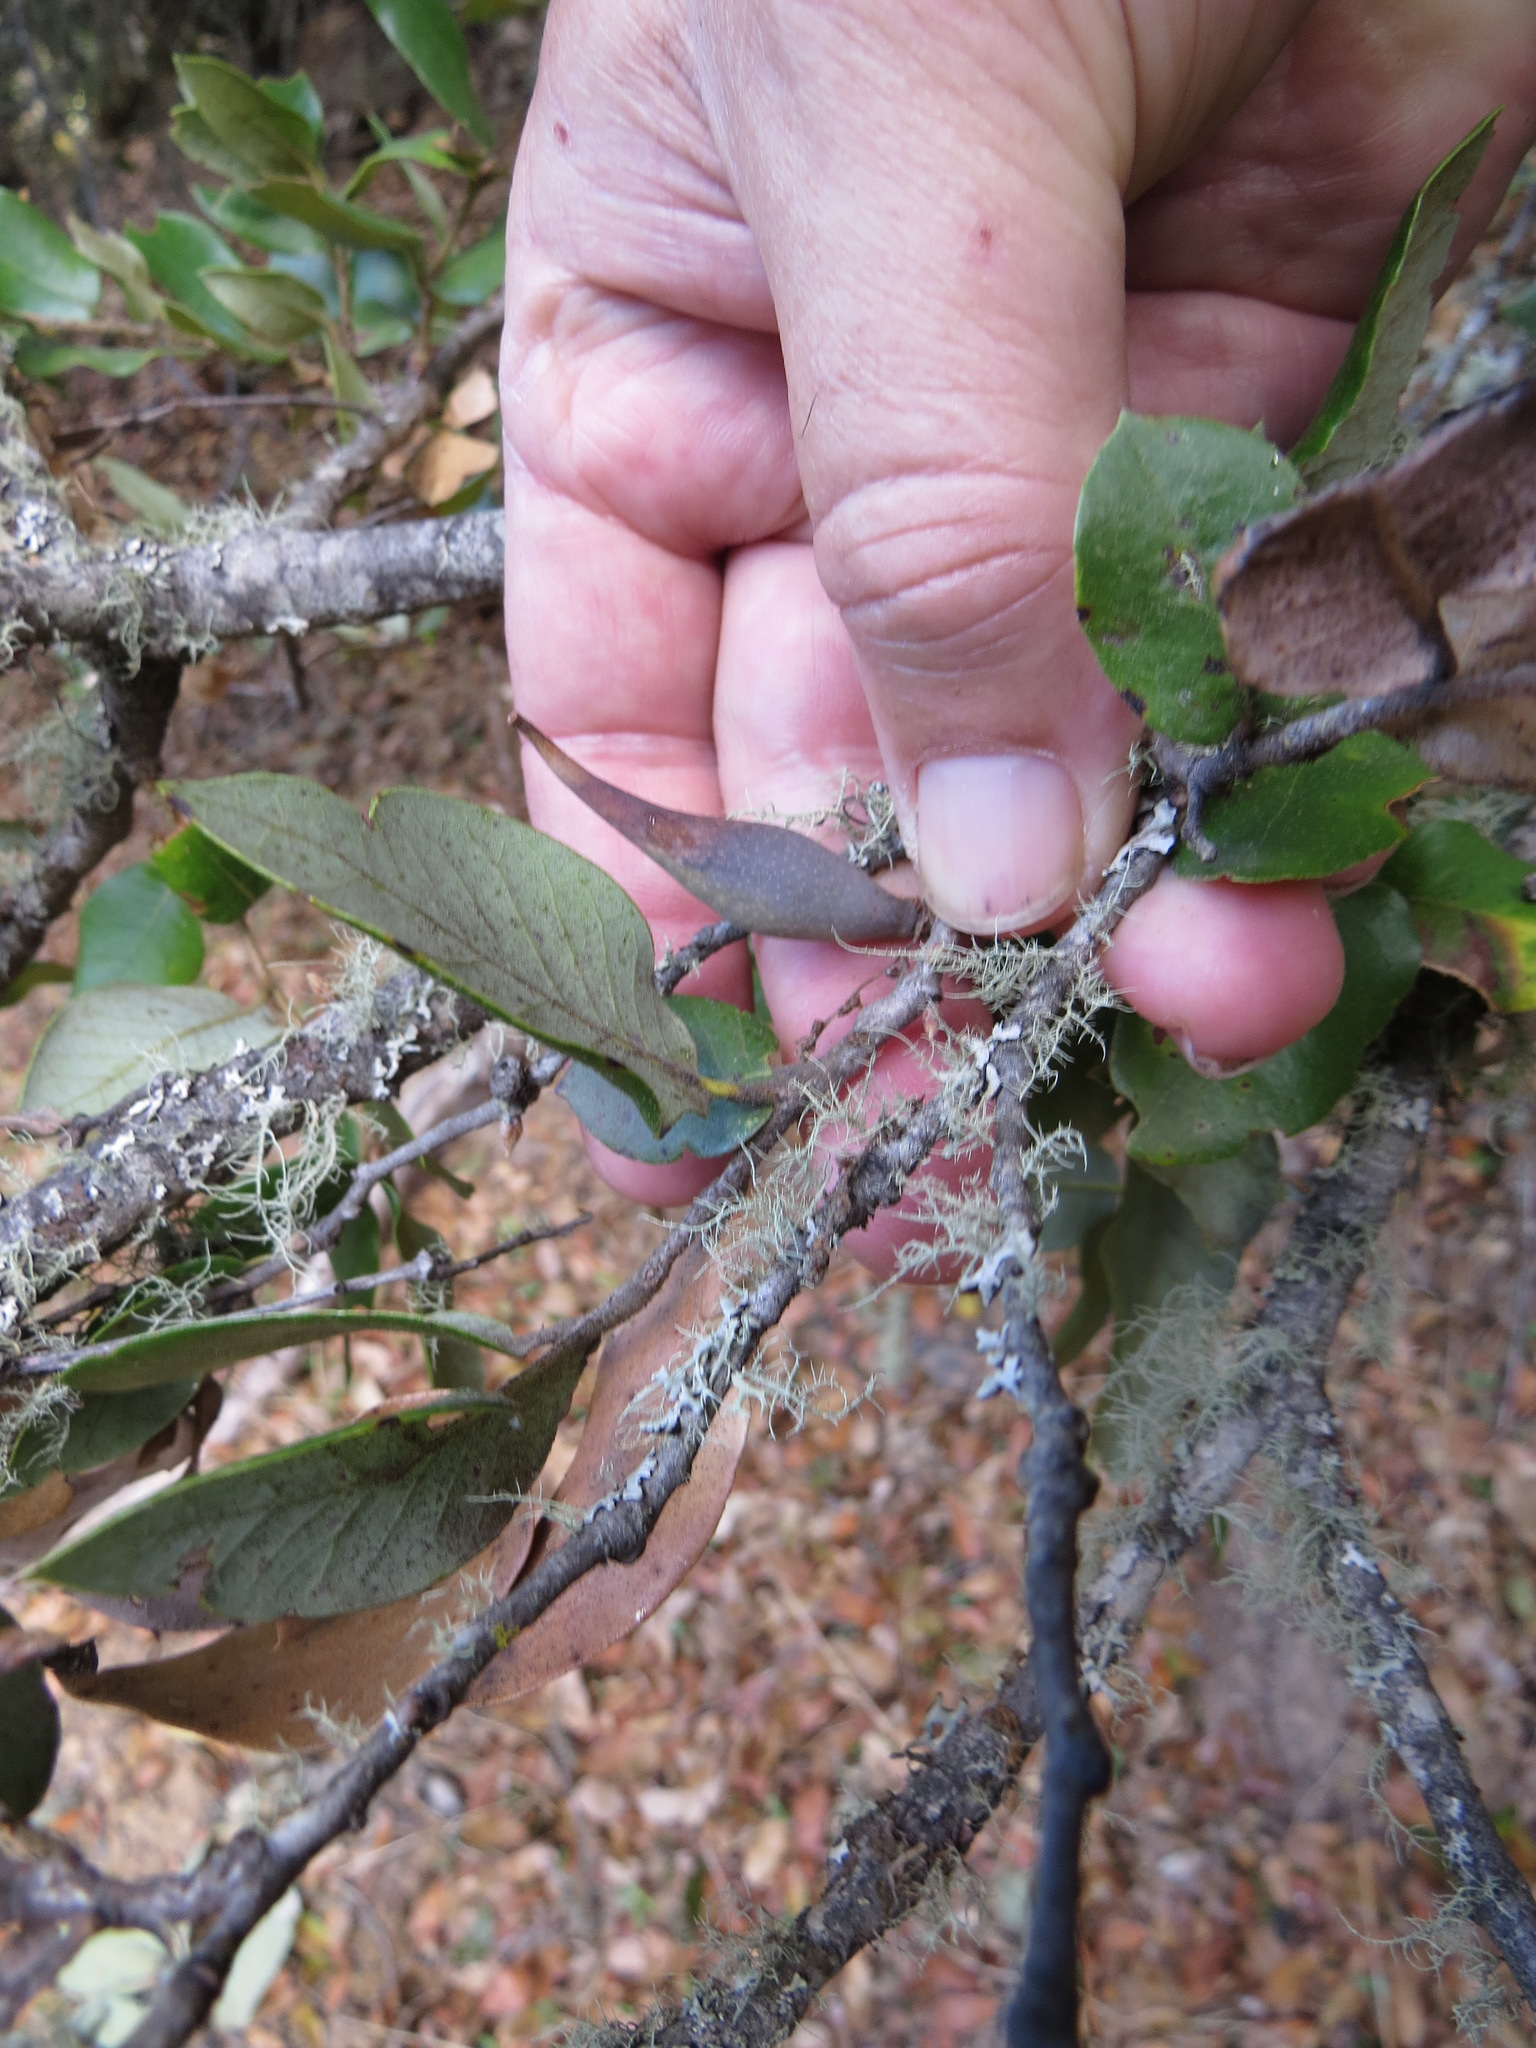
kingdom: Animalia
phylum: Arthropoda
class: Insecta
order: Hymenoptera
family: Cynipidae
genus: Heteroecus
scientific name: Heteroecus pacificus
